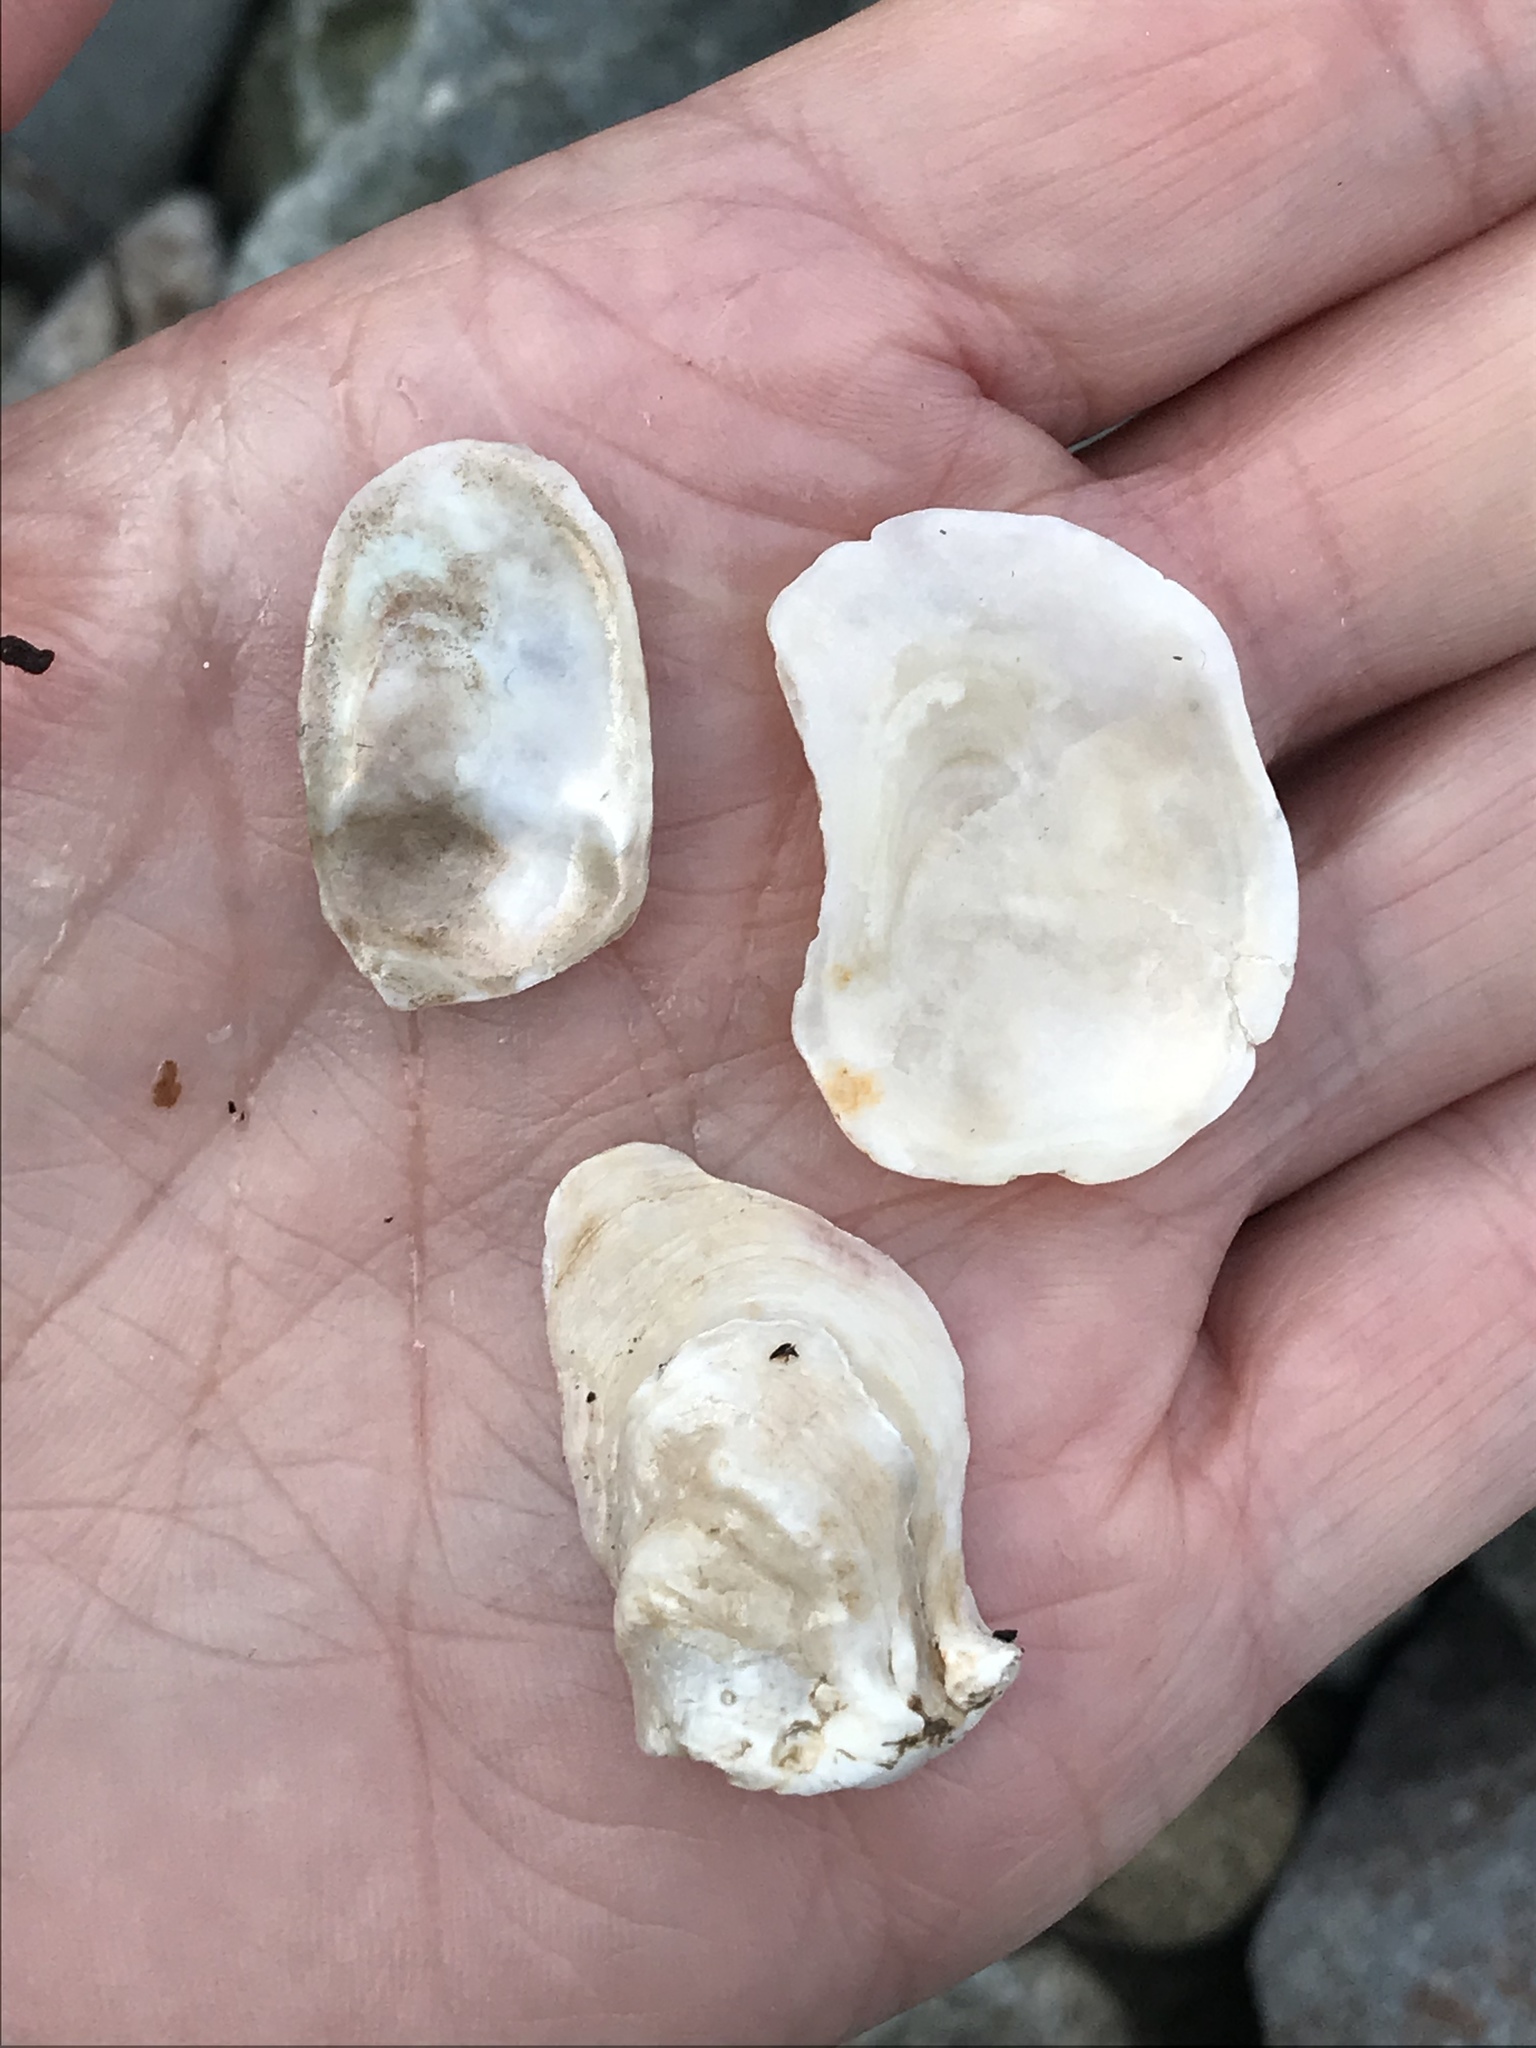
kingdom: Animalia
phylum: Mollusca
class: Bivalvia
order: Ostreida
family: Ostreidae
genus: Ostrea
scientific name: Ostrea lurida
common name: Olympia flat oyster
